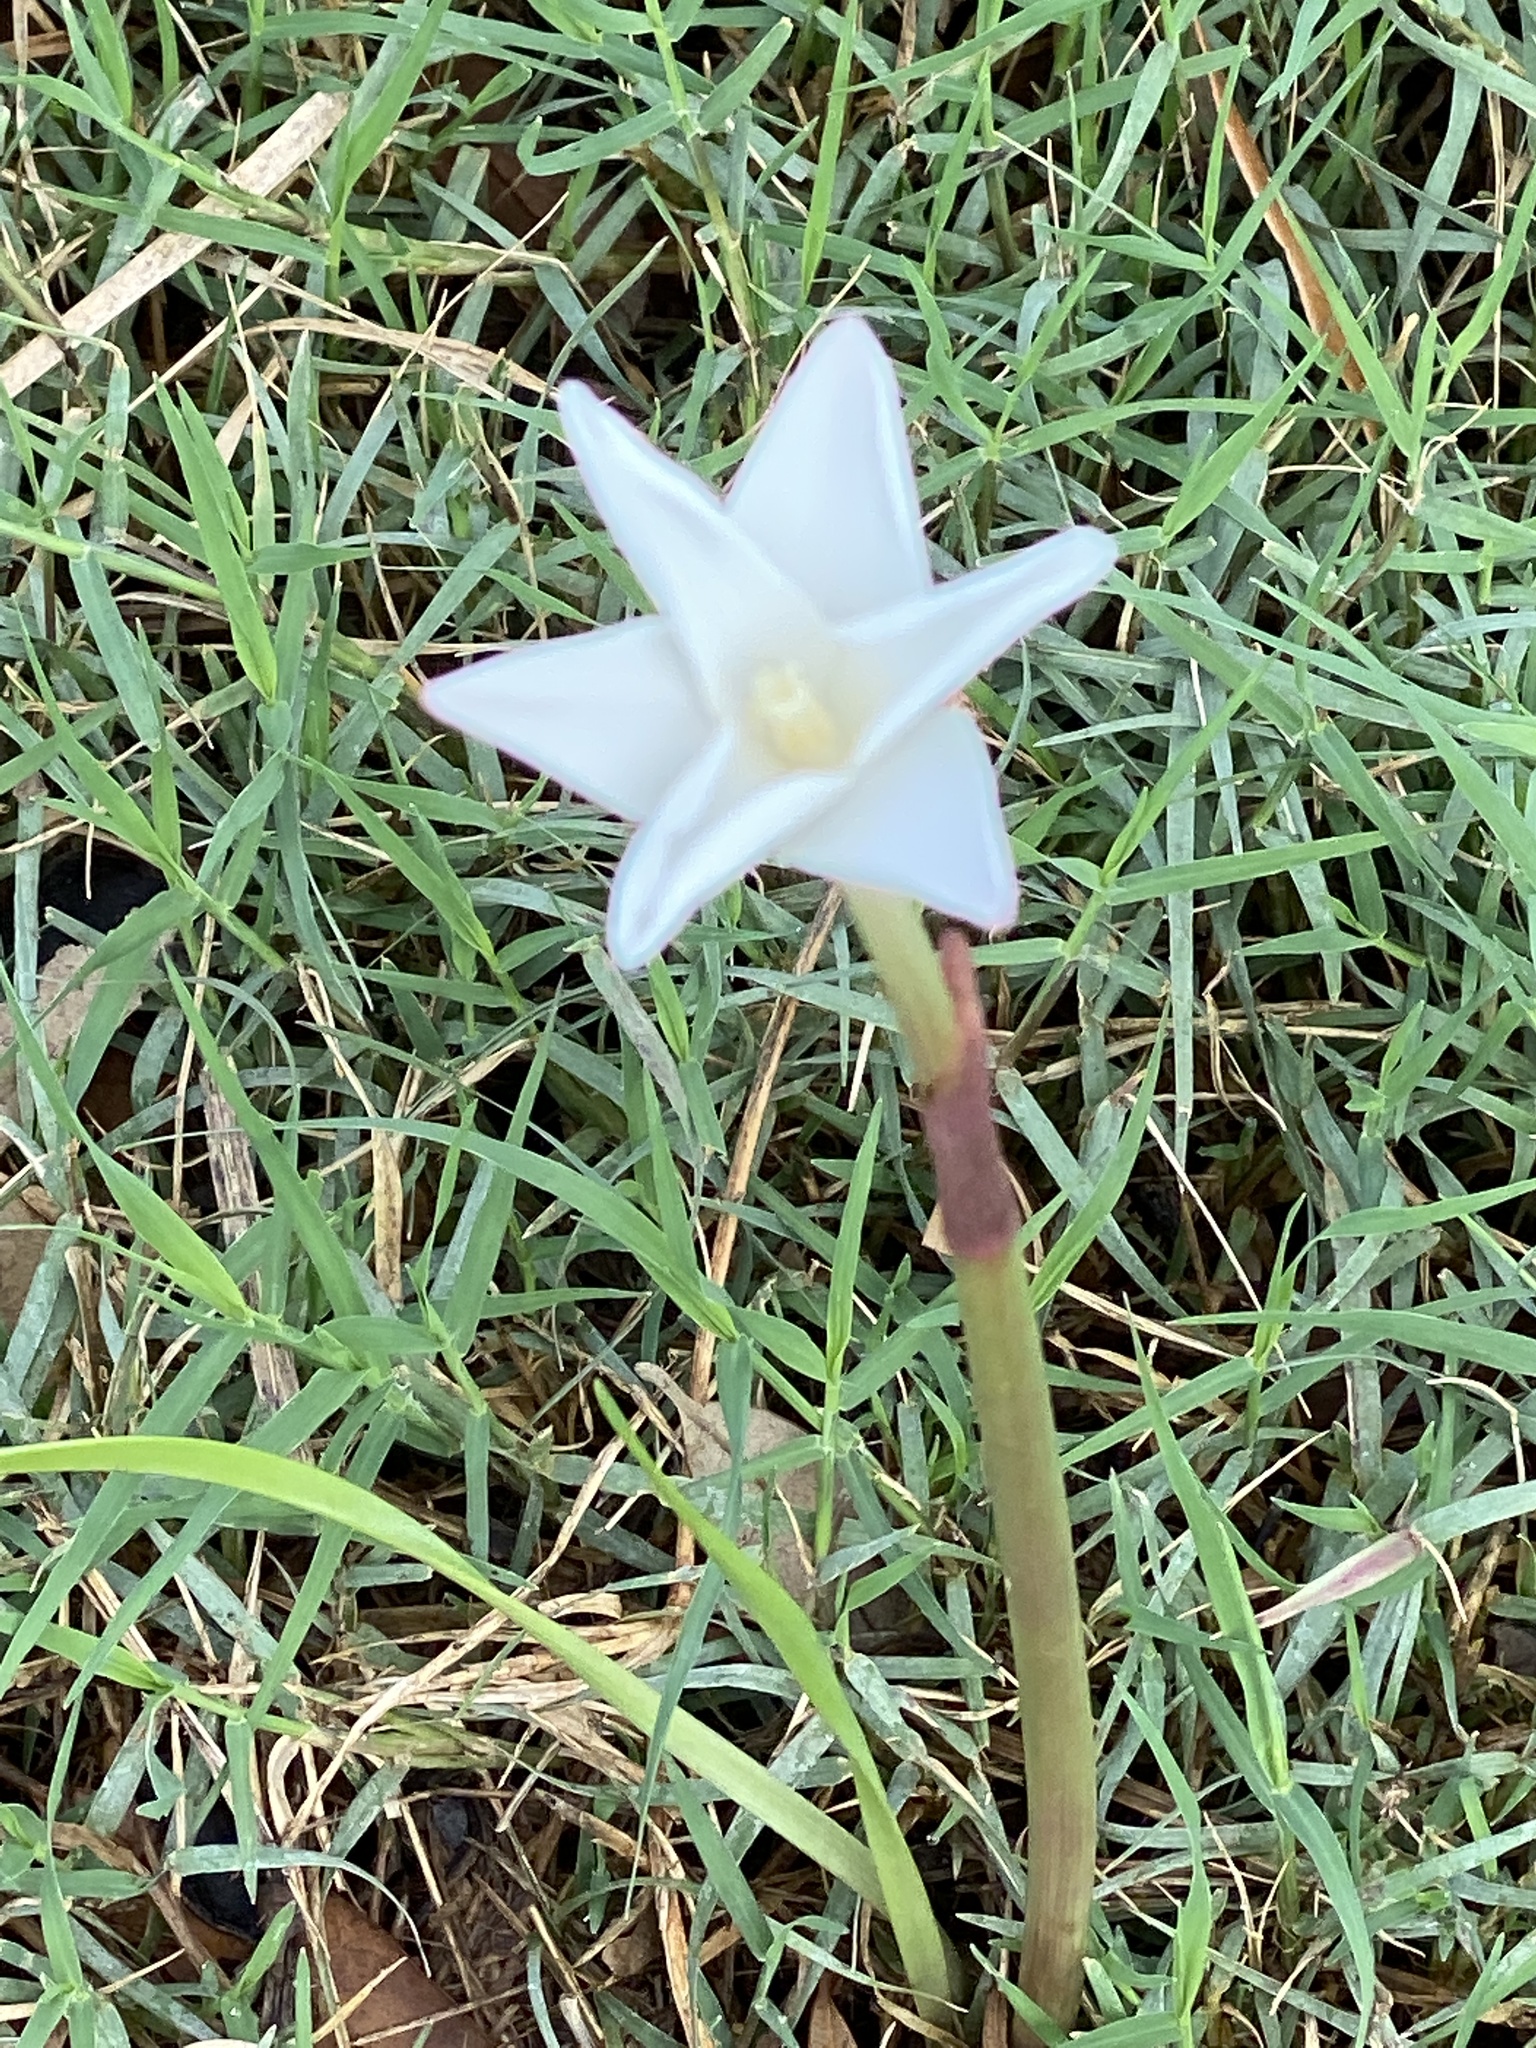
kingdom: Plantae
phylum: Tracheophyta
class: Liliopsida
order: Asparagales
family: Amaryllidaceae
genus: Zephyranthes
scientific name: Zephyranthes chlorosolen
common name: Evening rain-lily
